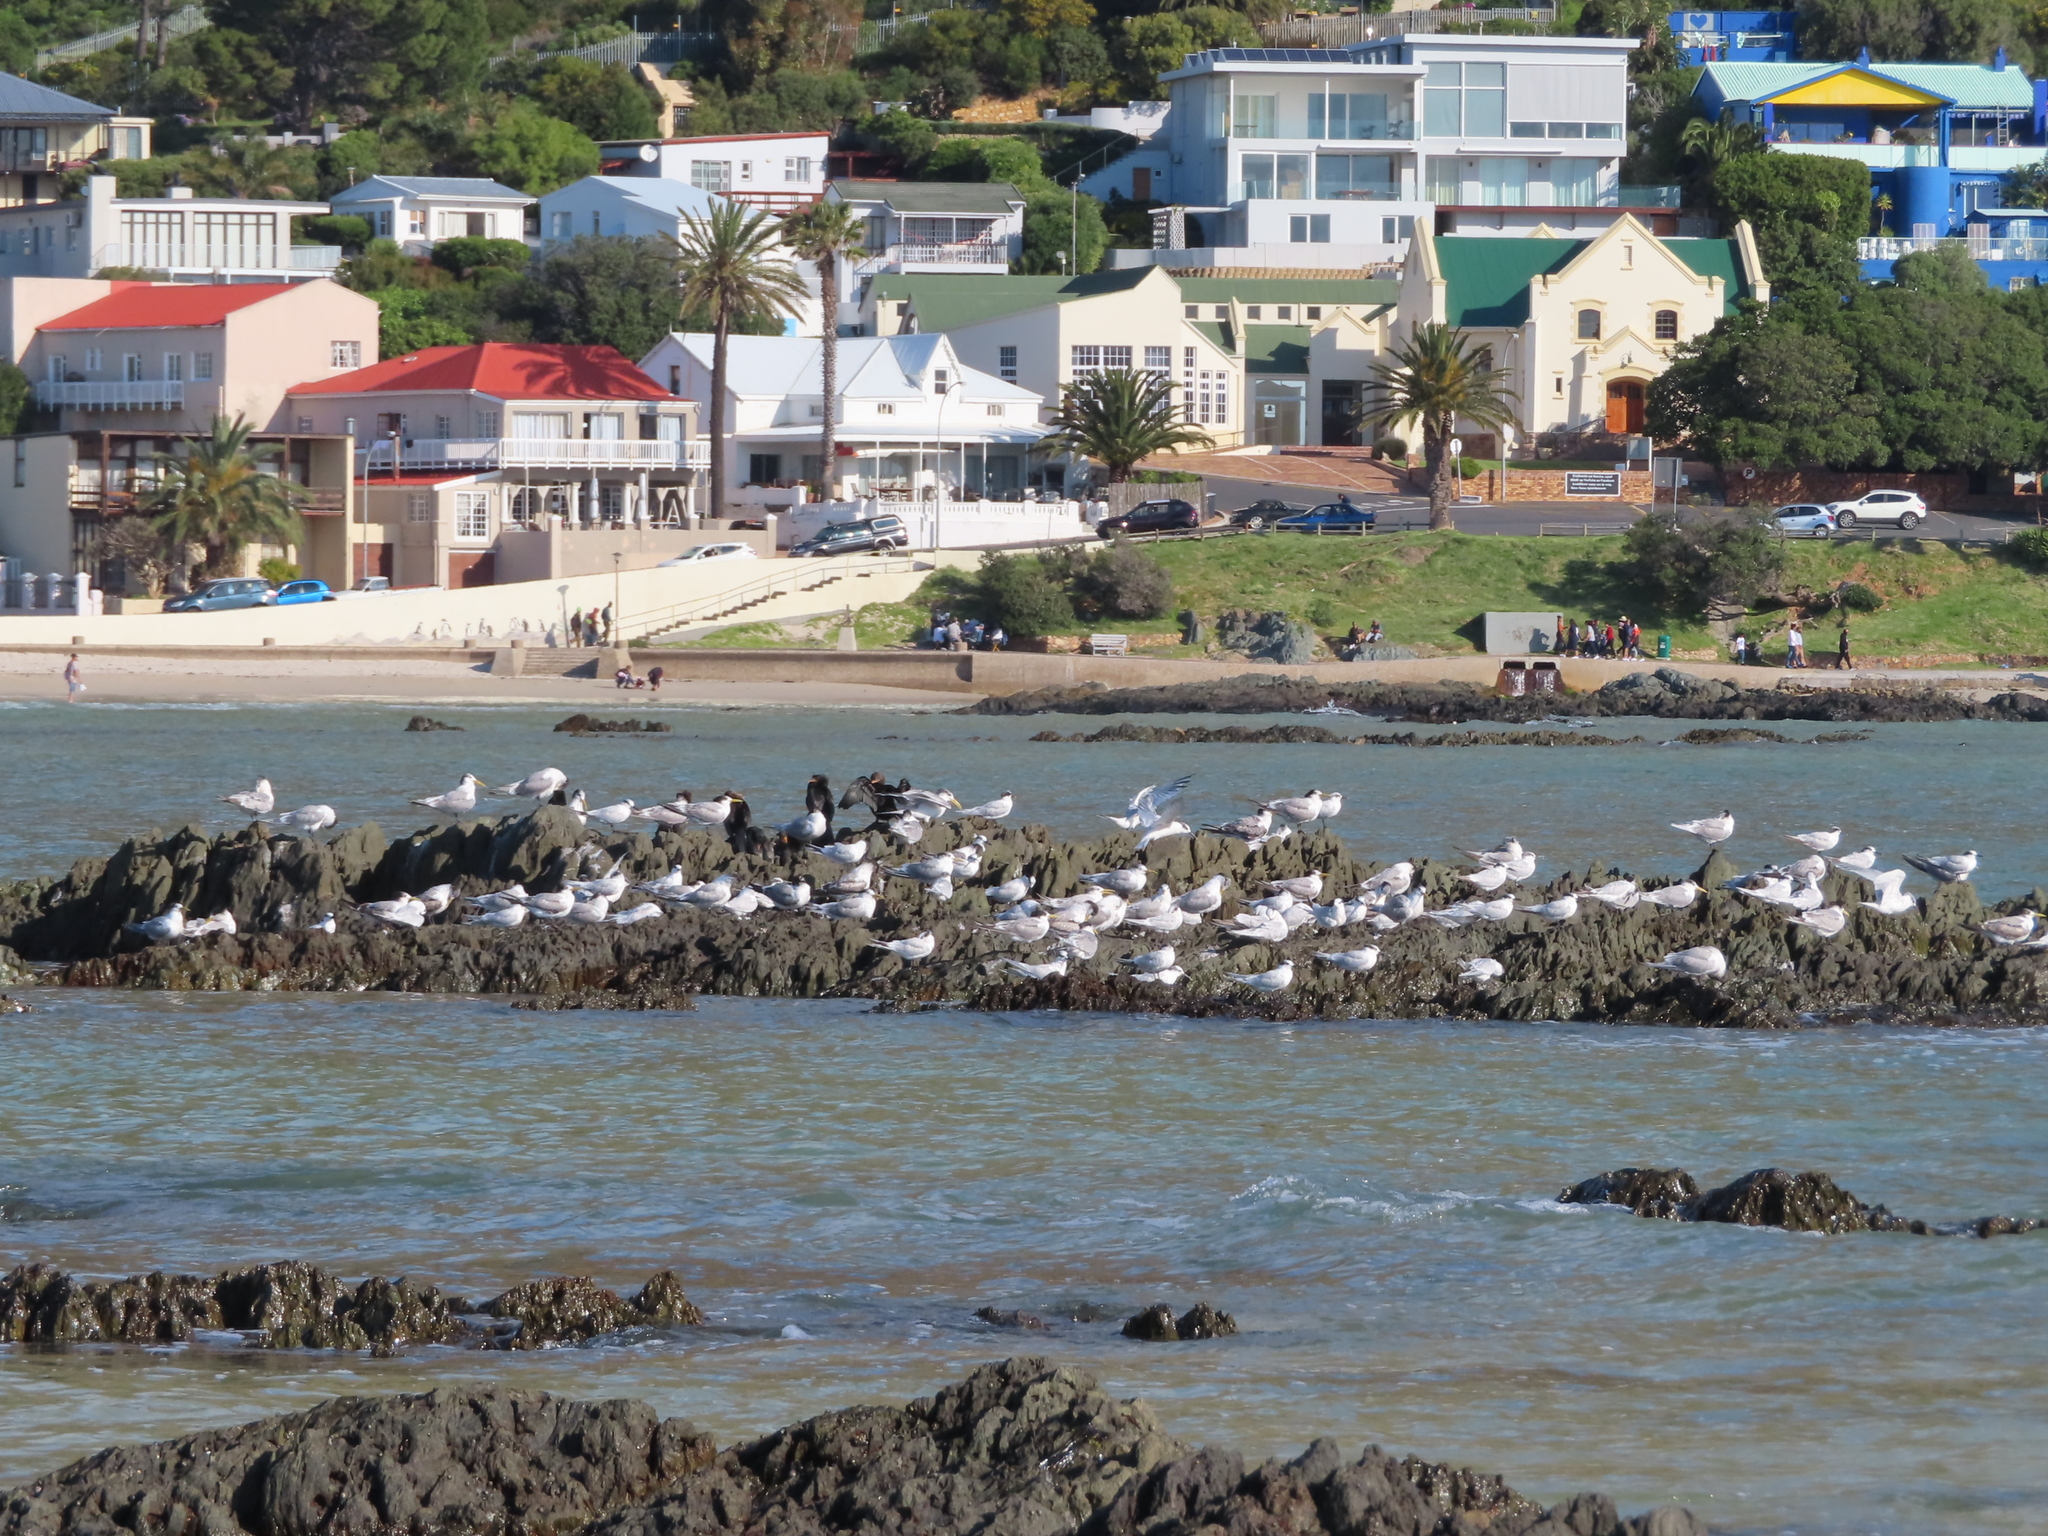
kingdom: Animalia
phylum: Chordata
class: Aves
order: Suliformes
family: Phalacrocoracidae
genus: Microcarbo
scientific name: Microcarbo coronatus
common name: Crowned cormorant
